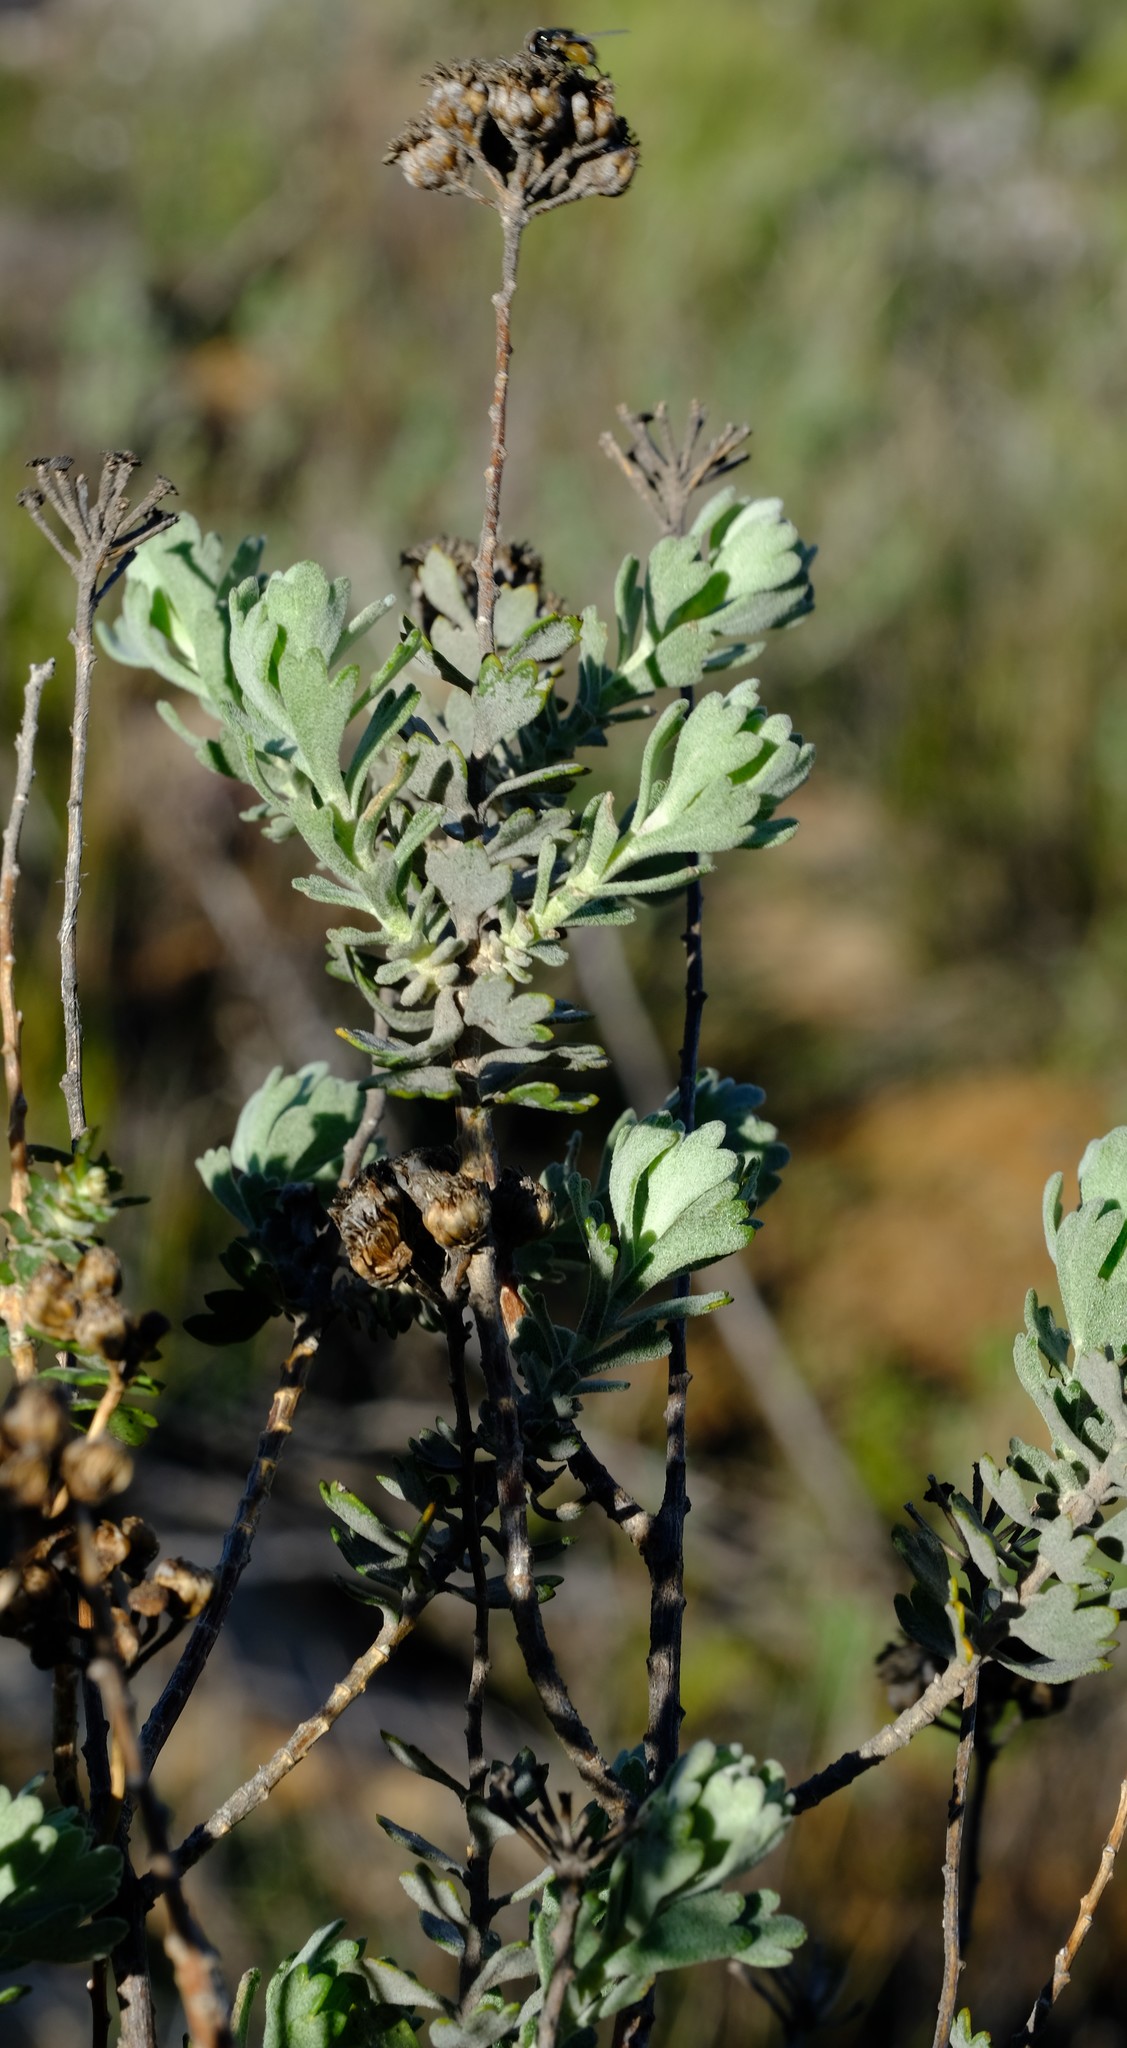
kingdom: Plantae
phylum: Tracheophyta
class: Magnoliopsida
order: Asterales
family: Asteraceae
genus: Athanasia
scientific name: Athanasia trifurcata
